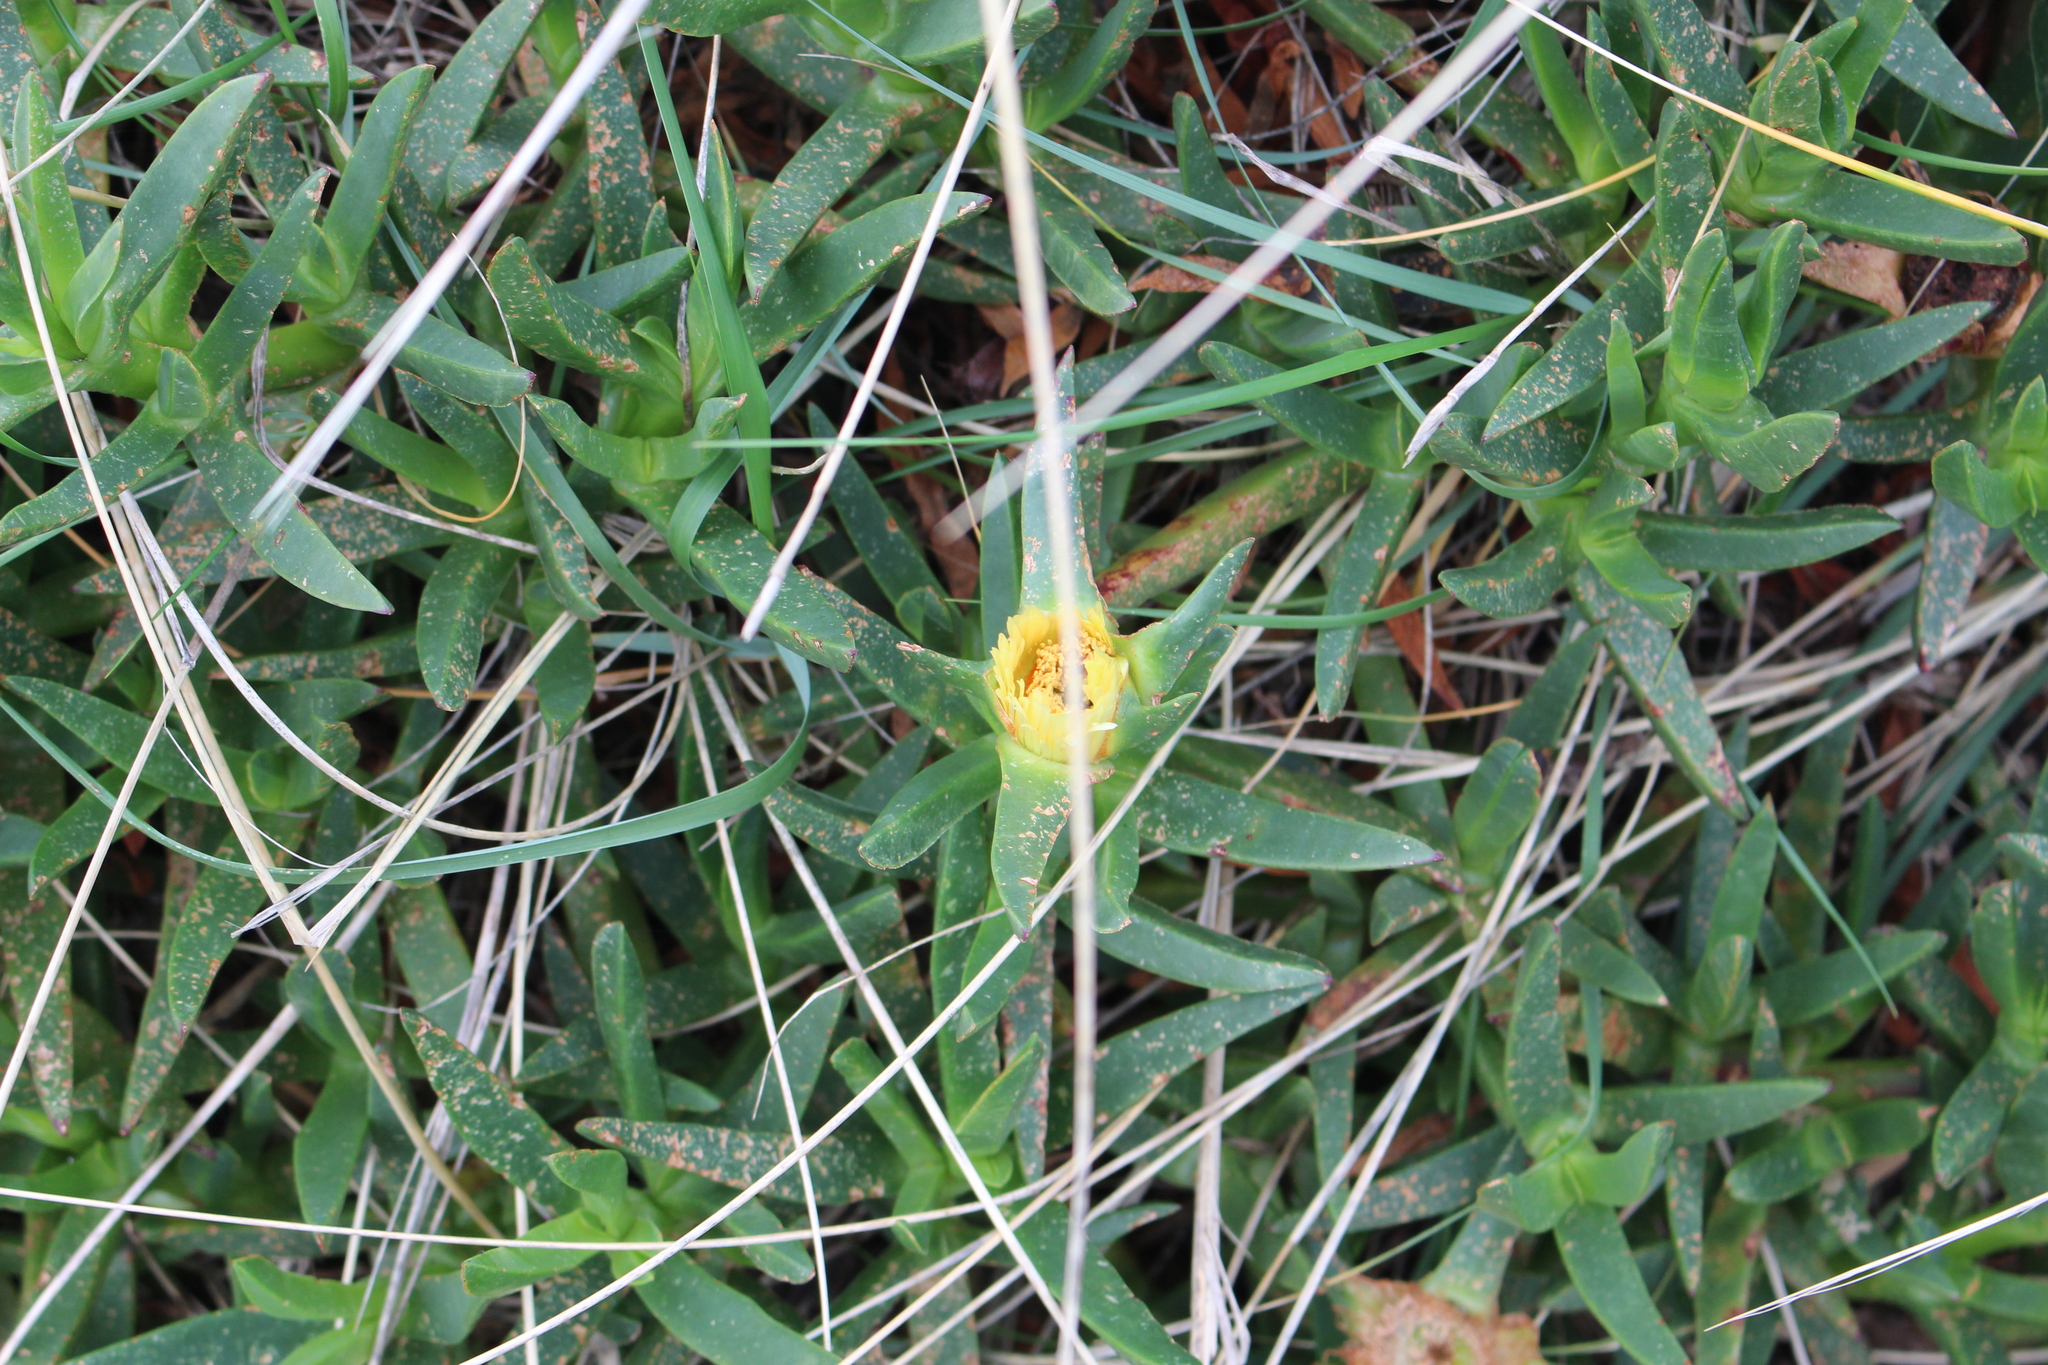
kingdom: Plantae
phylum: Tracheophyta
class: Magnoliopsida
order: Caryophyllales
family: Aizoaceae
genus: Carpobrotus
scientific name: Carpobrotus edulis
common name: Hottentot-fig
